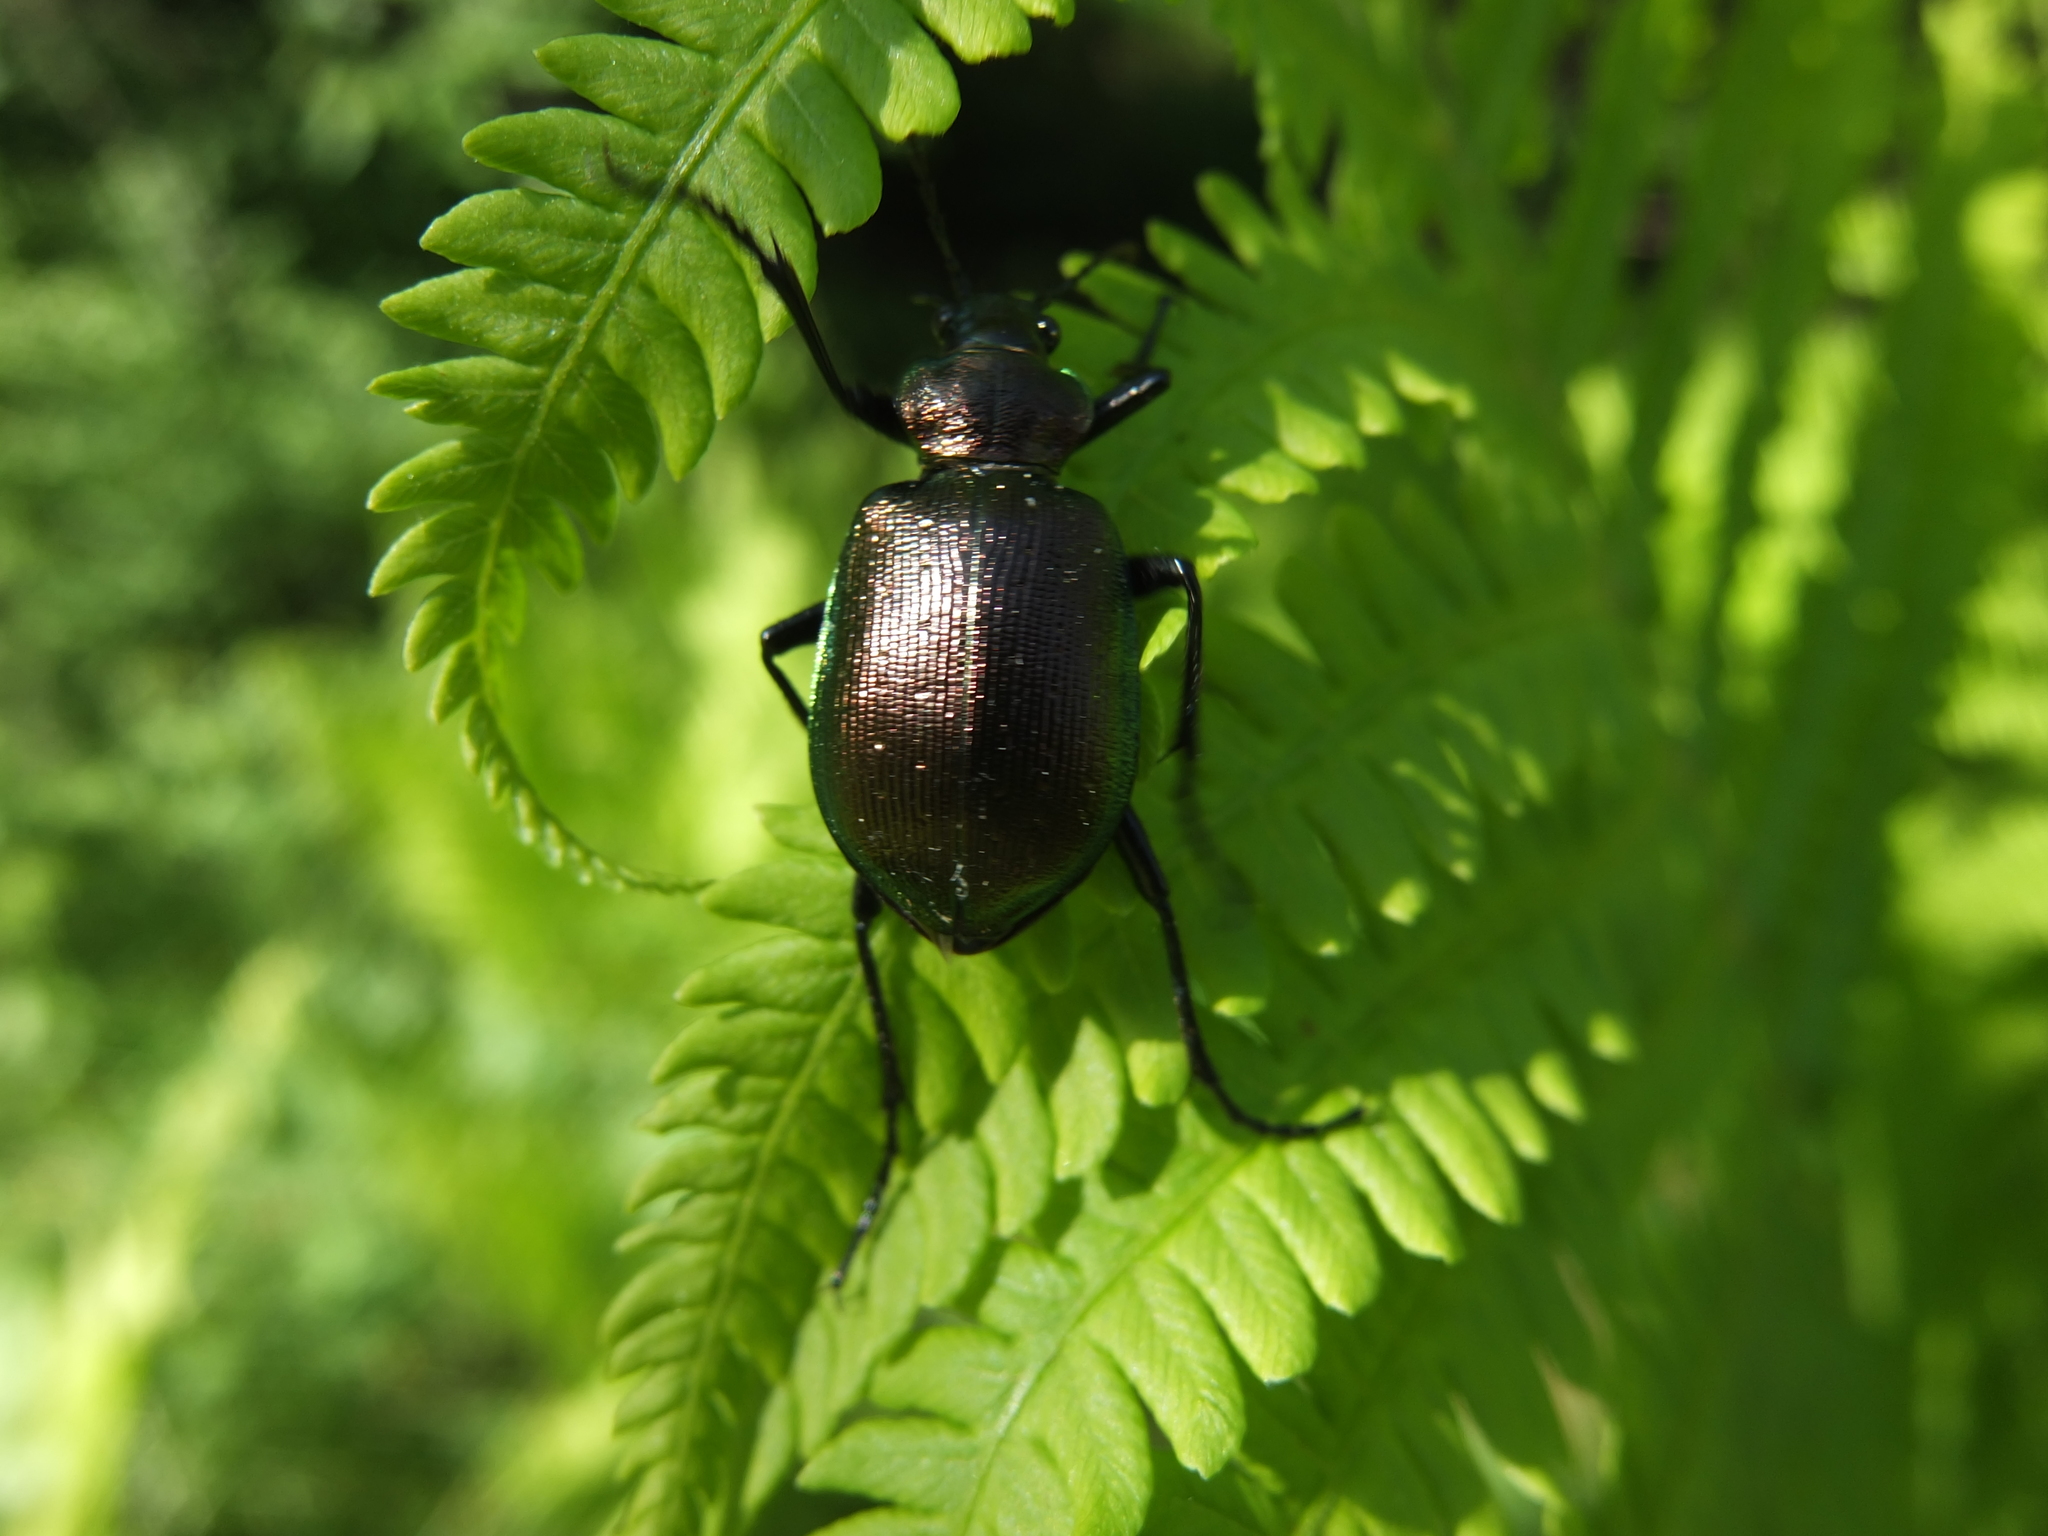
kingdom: Animalia
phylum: Arthropoda
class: Insecta
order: Coleoptera
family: Carabidae
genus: Calosoma
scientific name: Calosoma inquisitor
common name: Caterpillar-hunter
